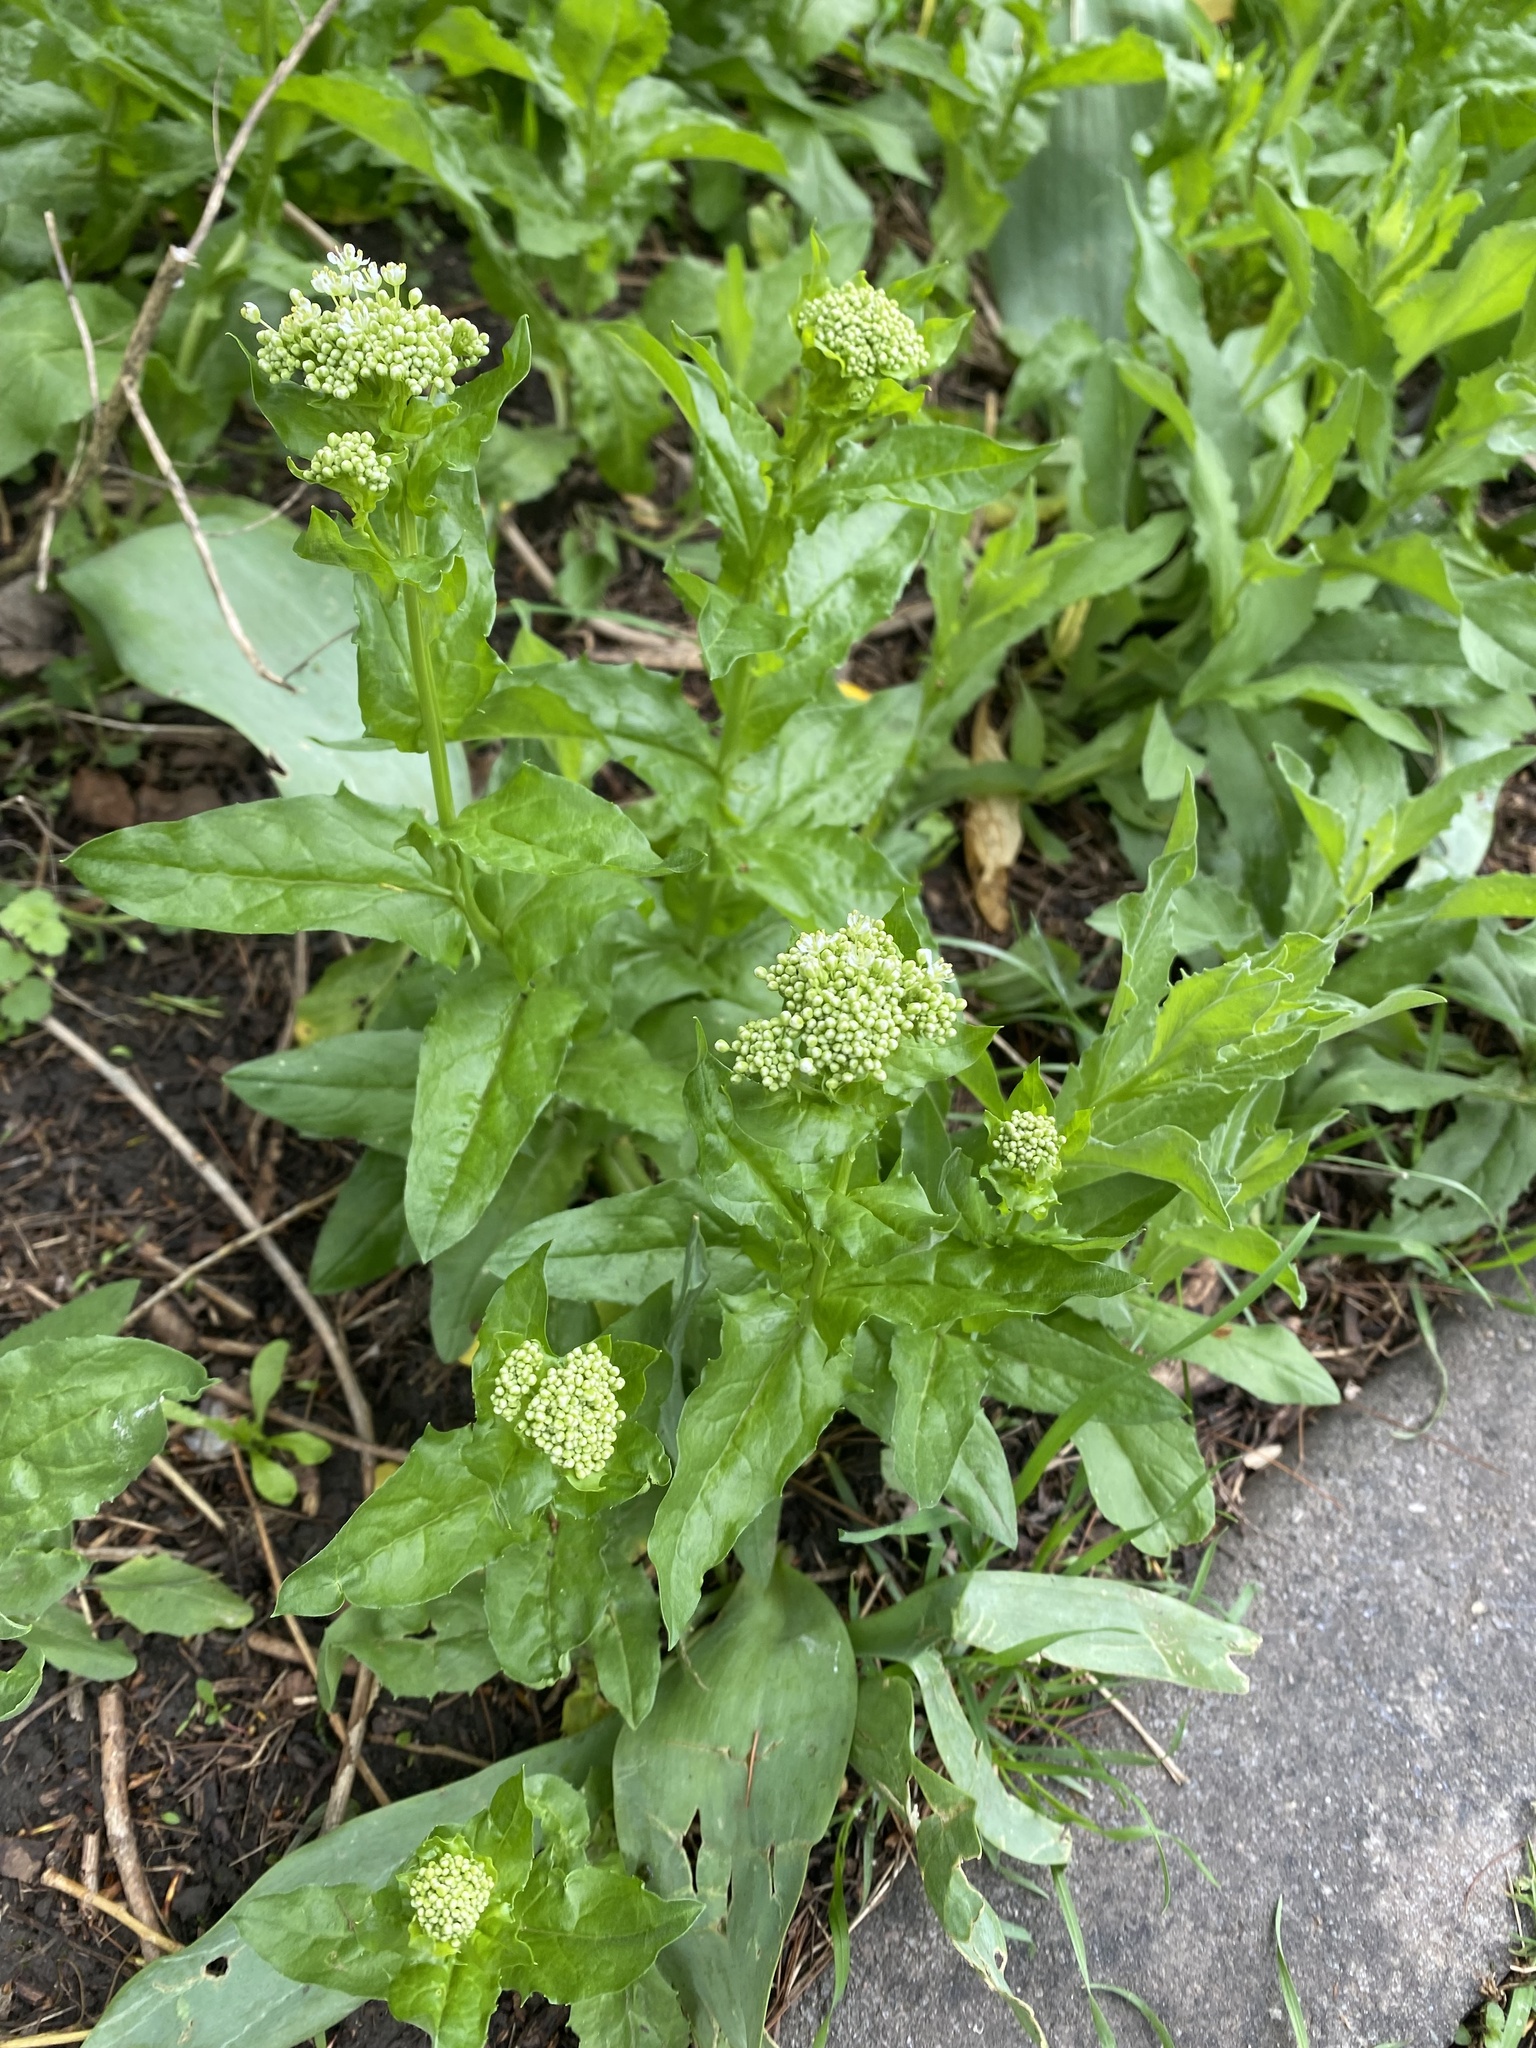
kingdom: Plantae
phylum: Tracheophyta
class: Magnoliopsida
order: Brassicales
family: Brassicaceae
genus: Lepidium
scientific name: Lepidium draba
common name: Hoary cress
